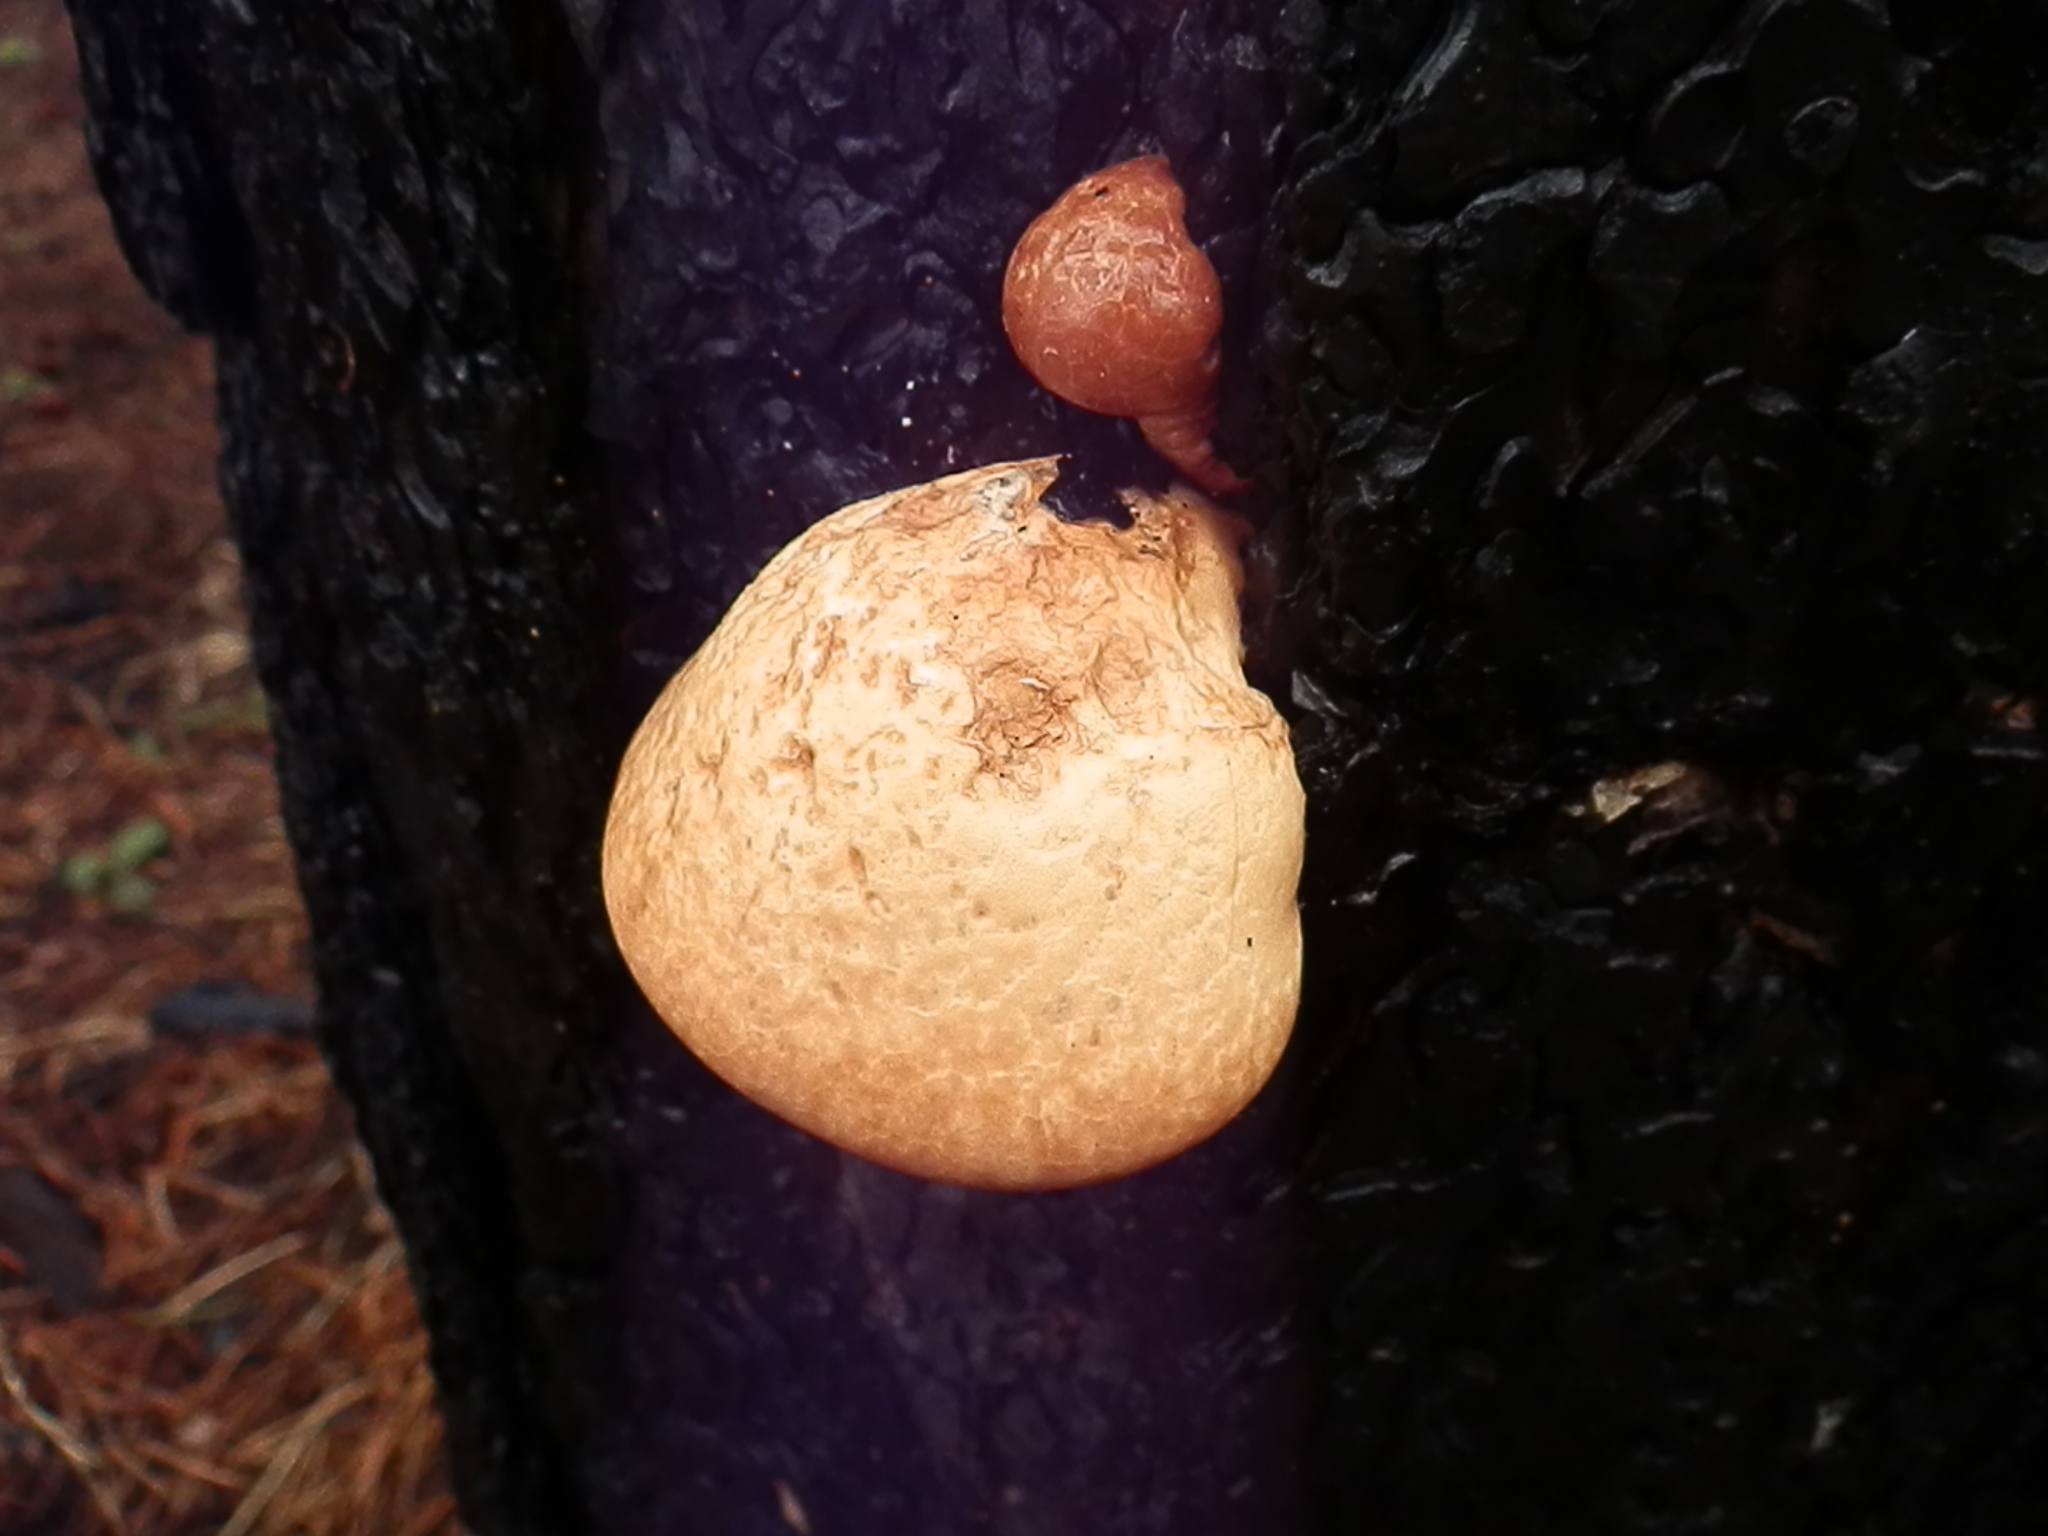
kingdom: Fungi
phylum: Basidiomycota
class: Agaricomycetes
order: Polyporales
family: Polyporaceae
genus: Cryptoporus
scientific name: Cryptoporus volvatus
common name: Veiled polypore
